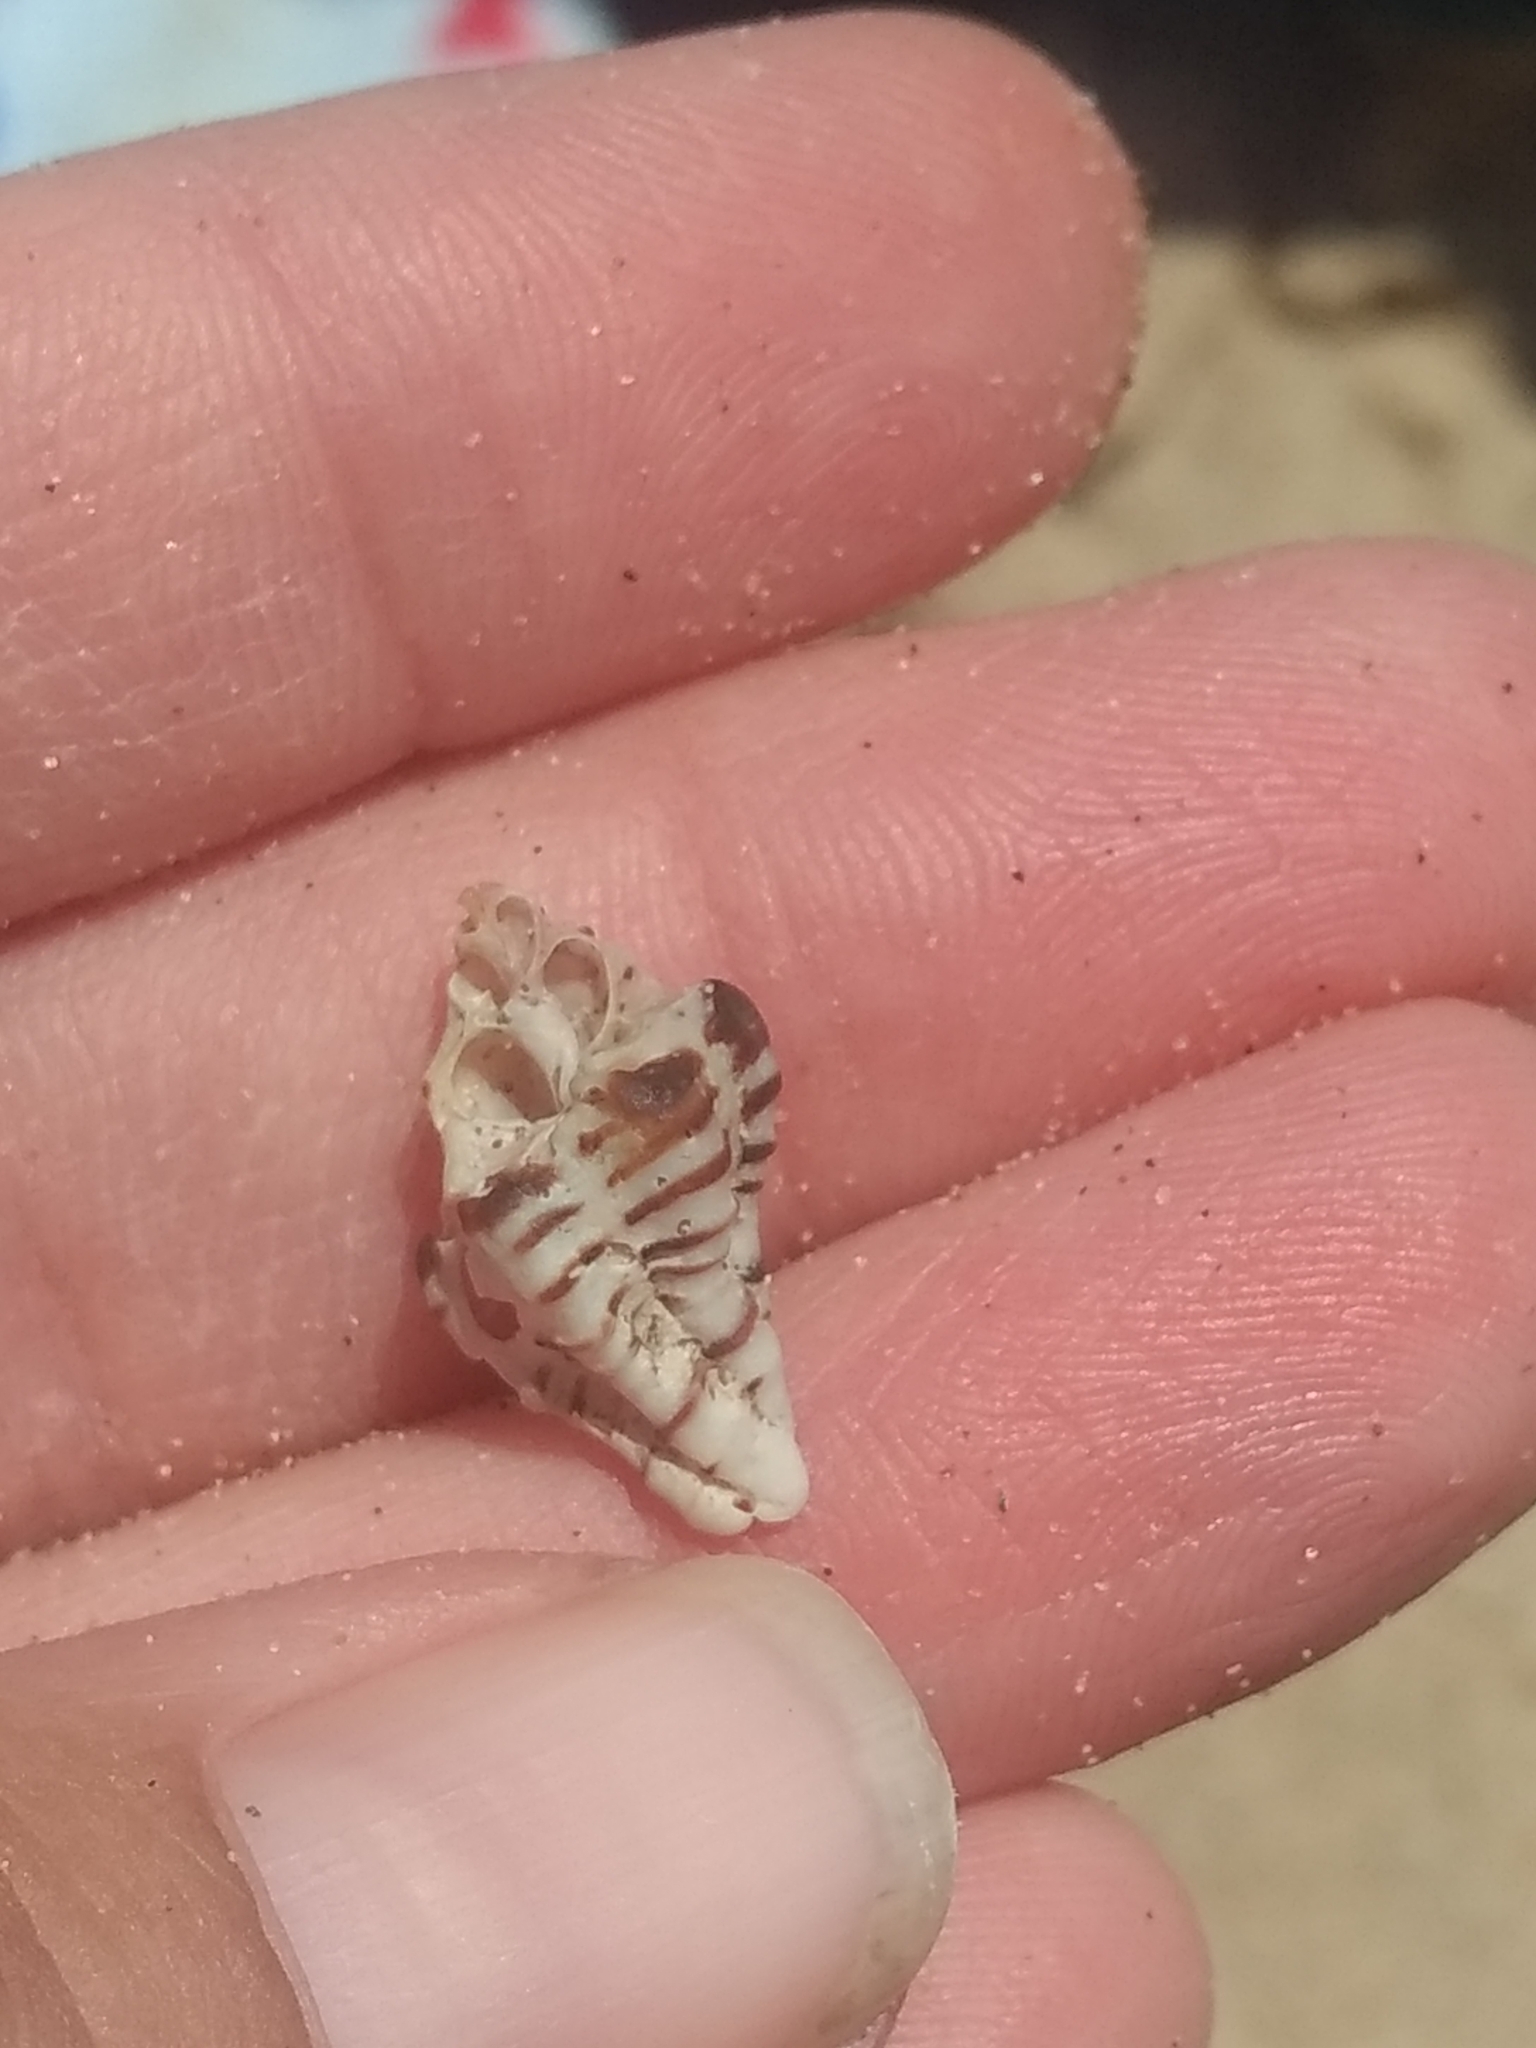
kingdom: Animalia
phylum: Mollusca
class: Gastropoda
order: Neogastropoda
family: Muricidae
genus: Maxwellia
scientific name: Maxwellia gemma
